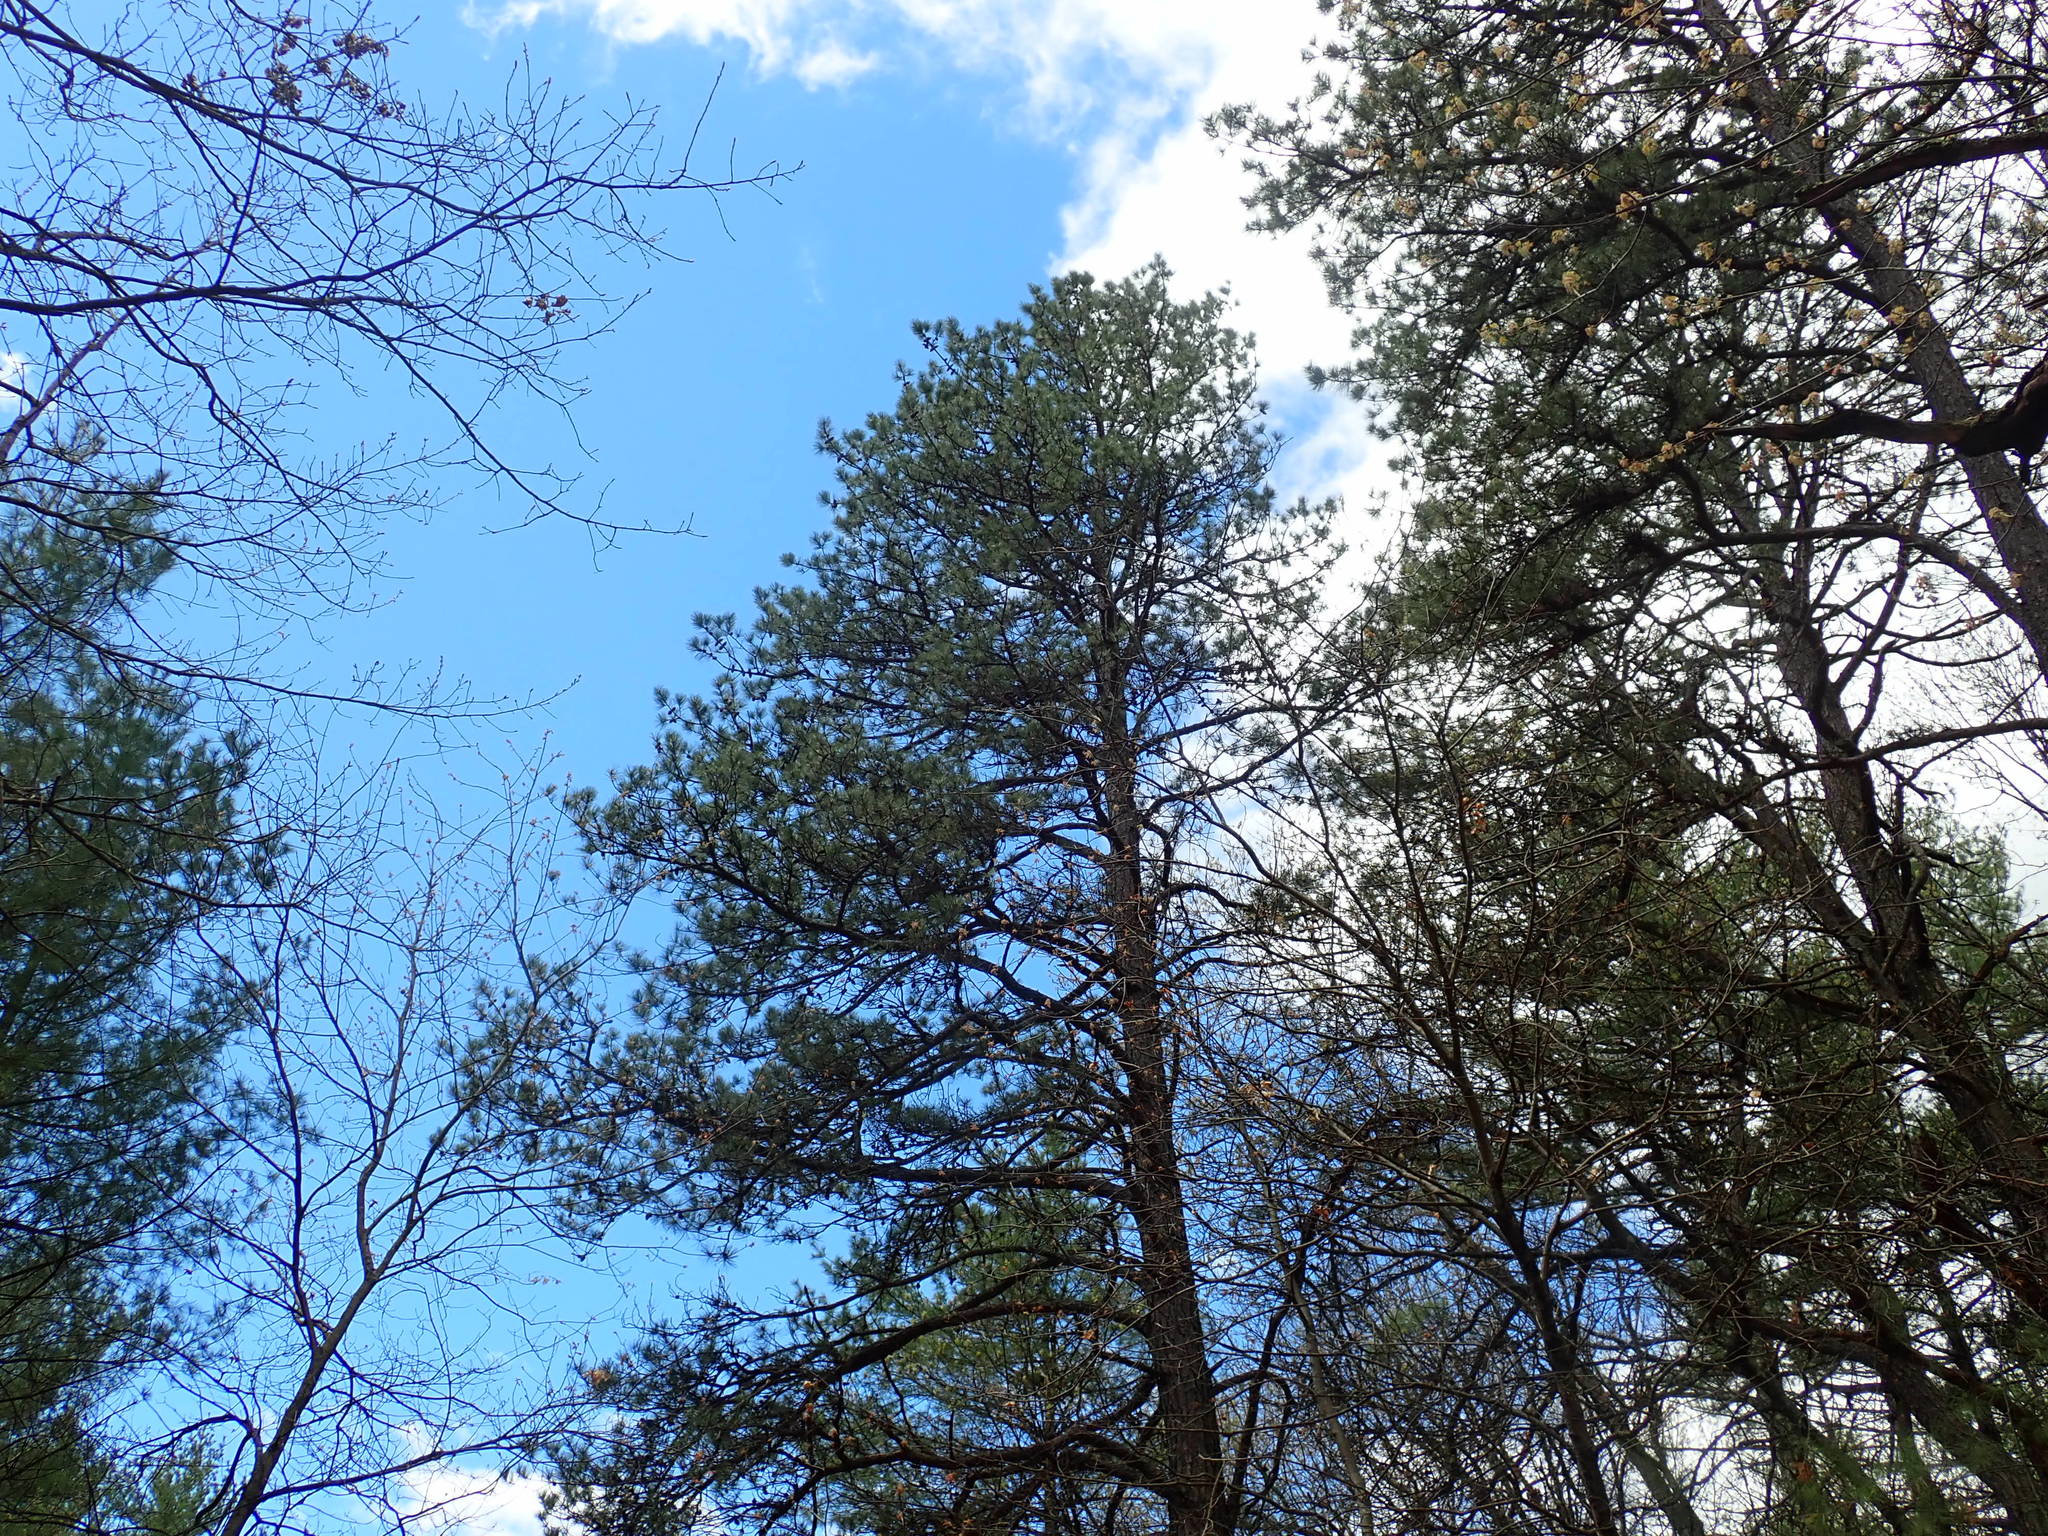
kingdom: Plantae
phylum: Tracheophyta
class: Pinopsida
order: Pinales
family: Pinaceae
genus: Pinus
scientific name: Pinus rigida
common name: Pitch pine
